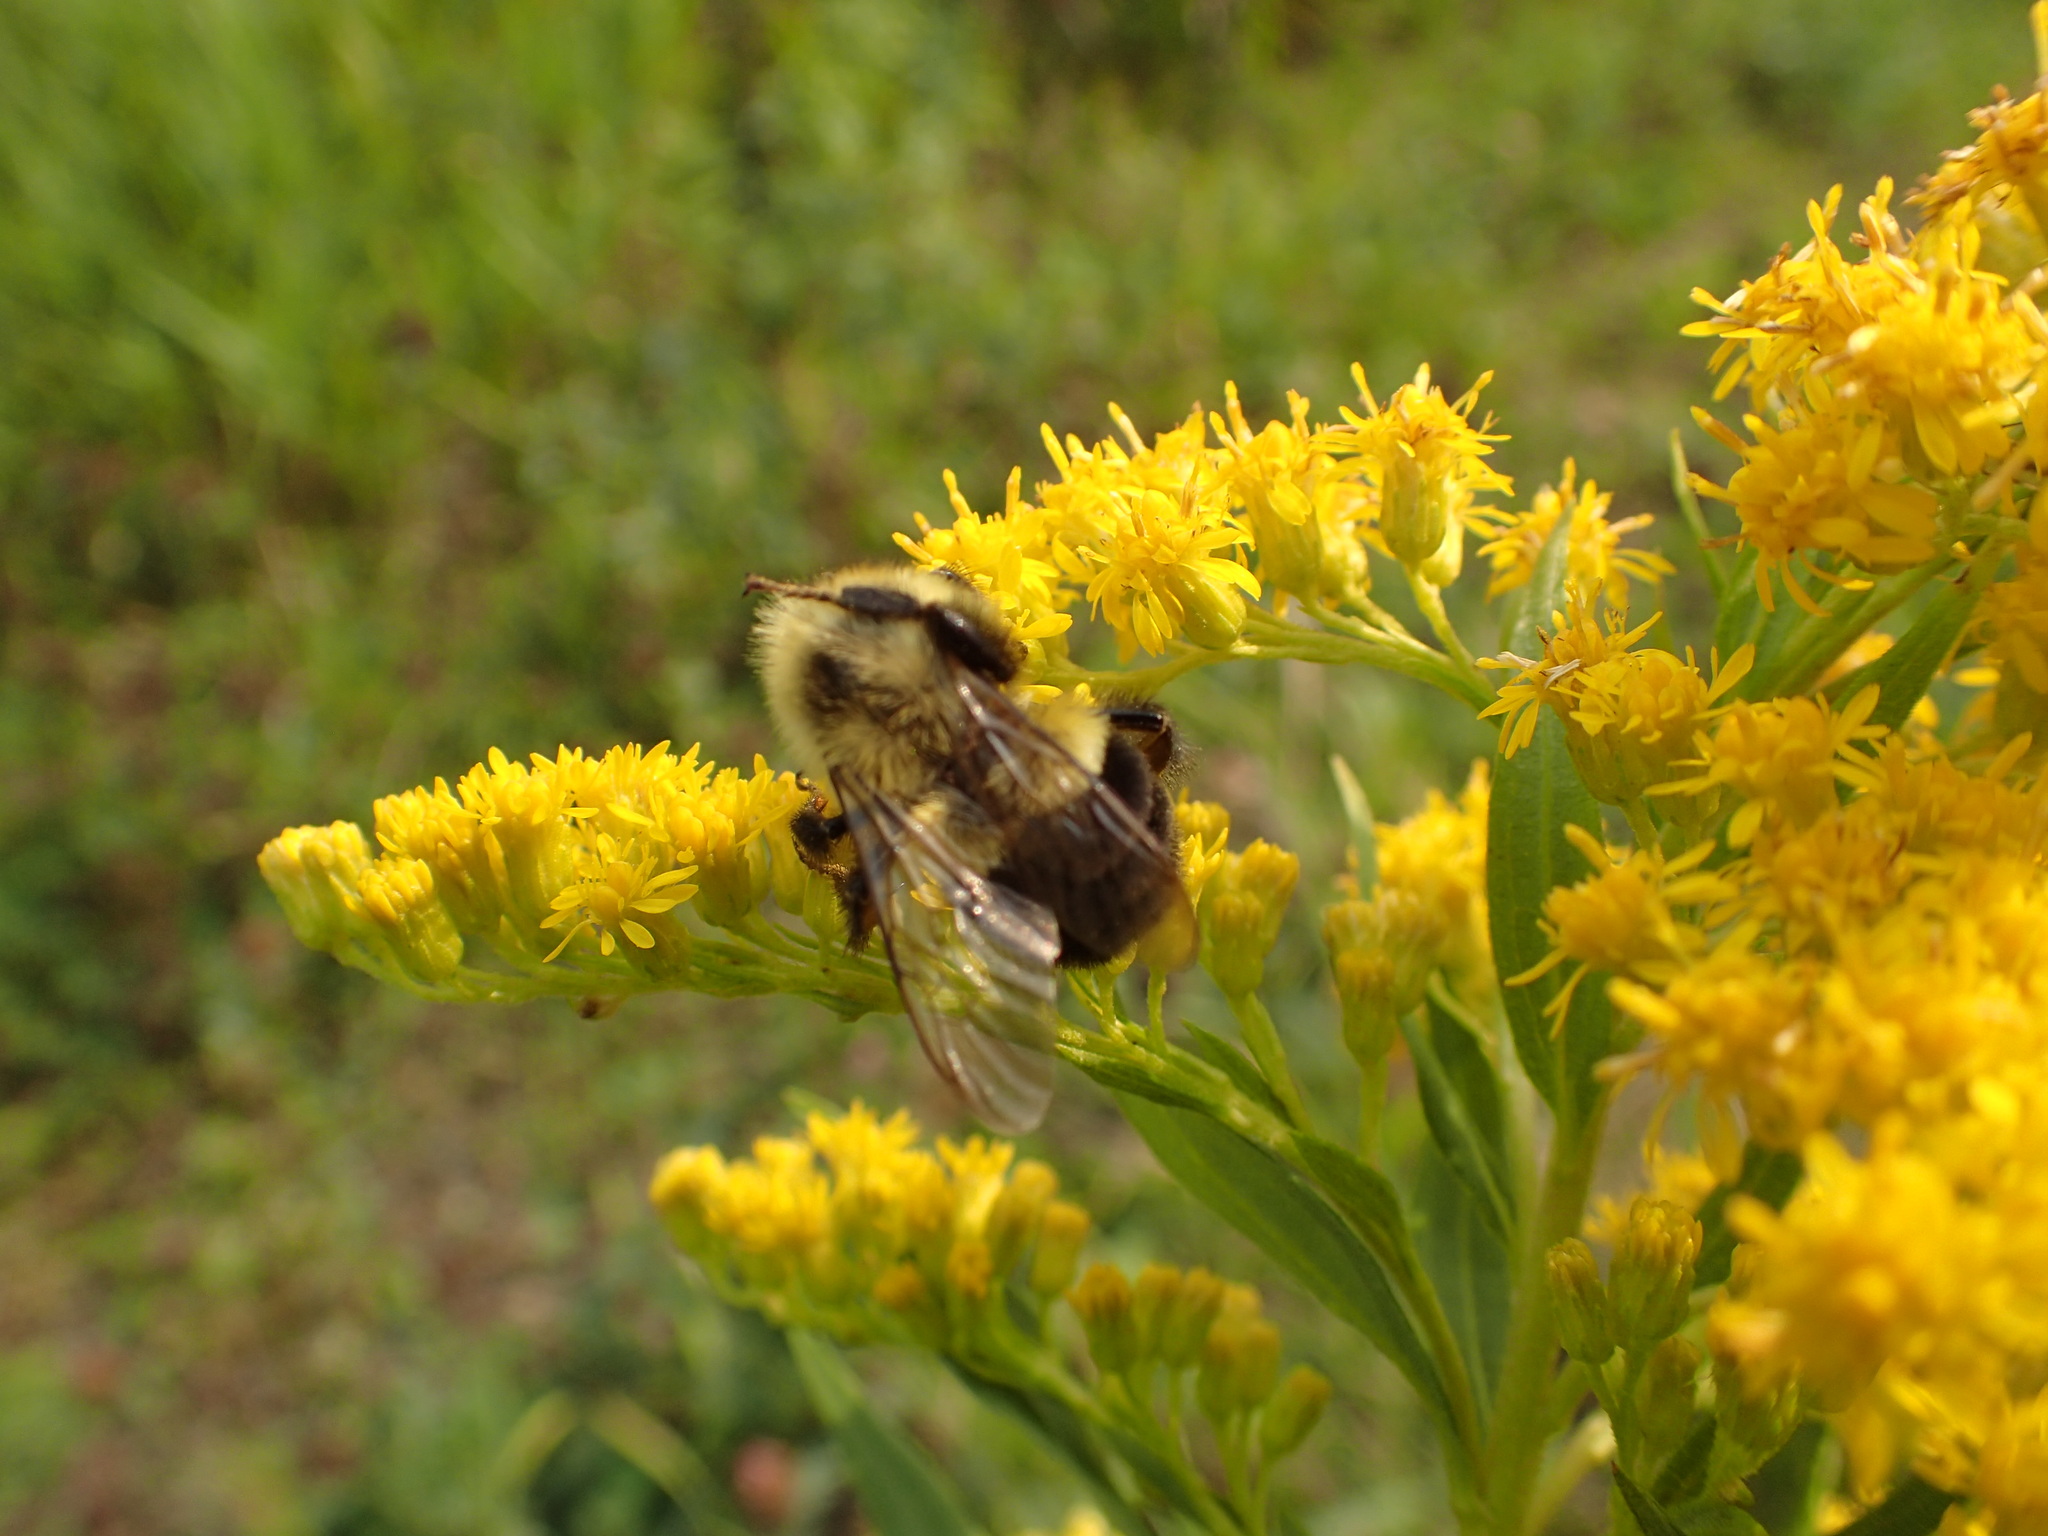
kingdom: Animalia
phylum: Arthropoda
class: Insecta
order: Hymenoptera
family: Apidae
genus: Bombus
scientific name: Bombus impatiens
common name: Common eastern bumble bee
